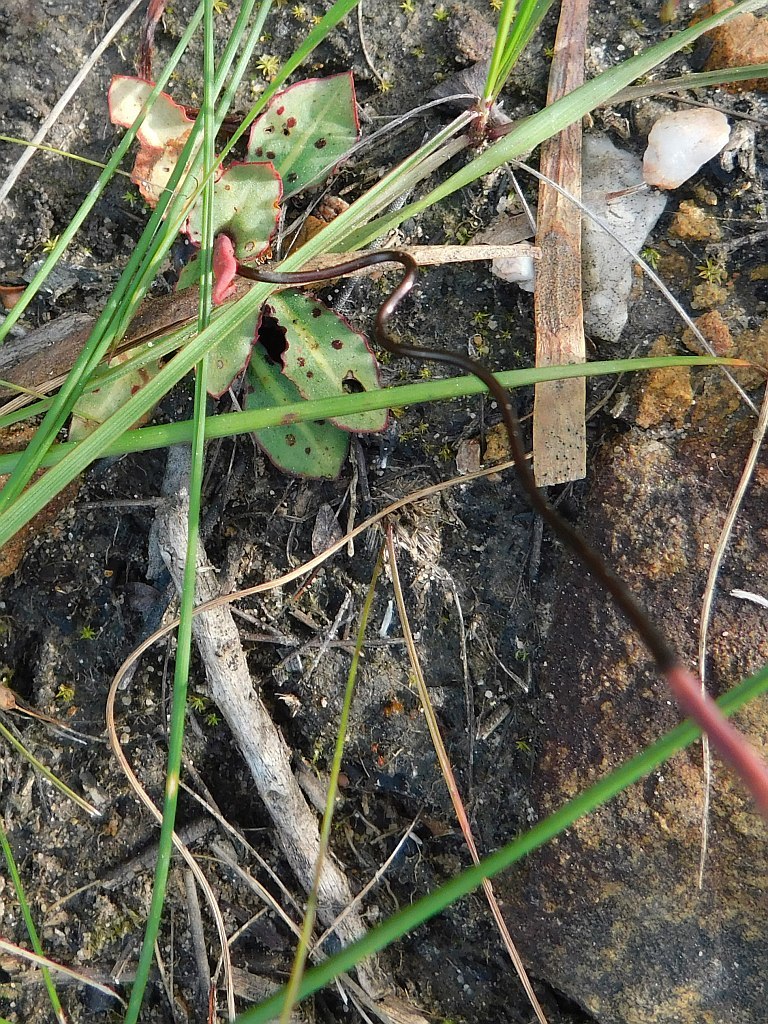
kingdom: Plantae
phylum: Tracheophyta
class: Liliopsida
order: Asparagales
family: Orchidaceae
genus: Disa
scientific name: Disa bifida
